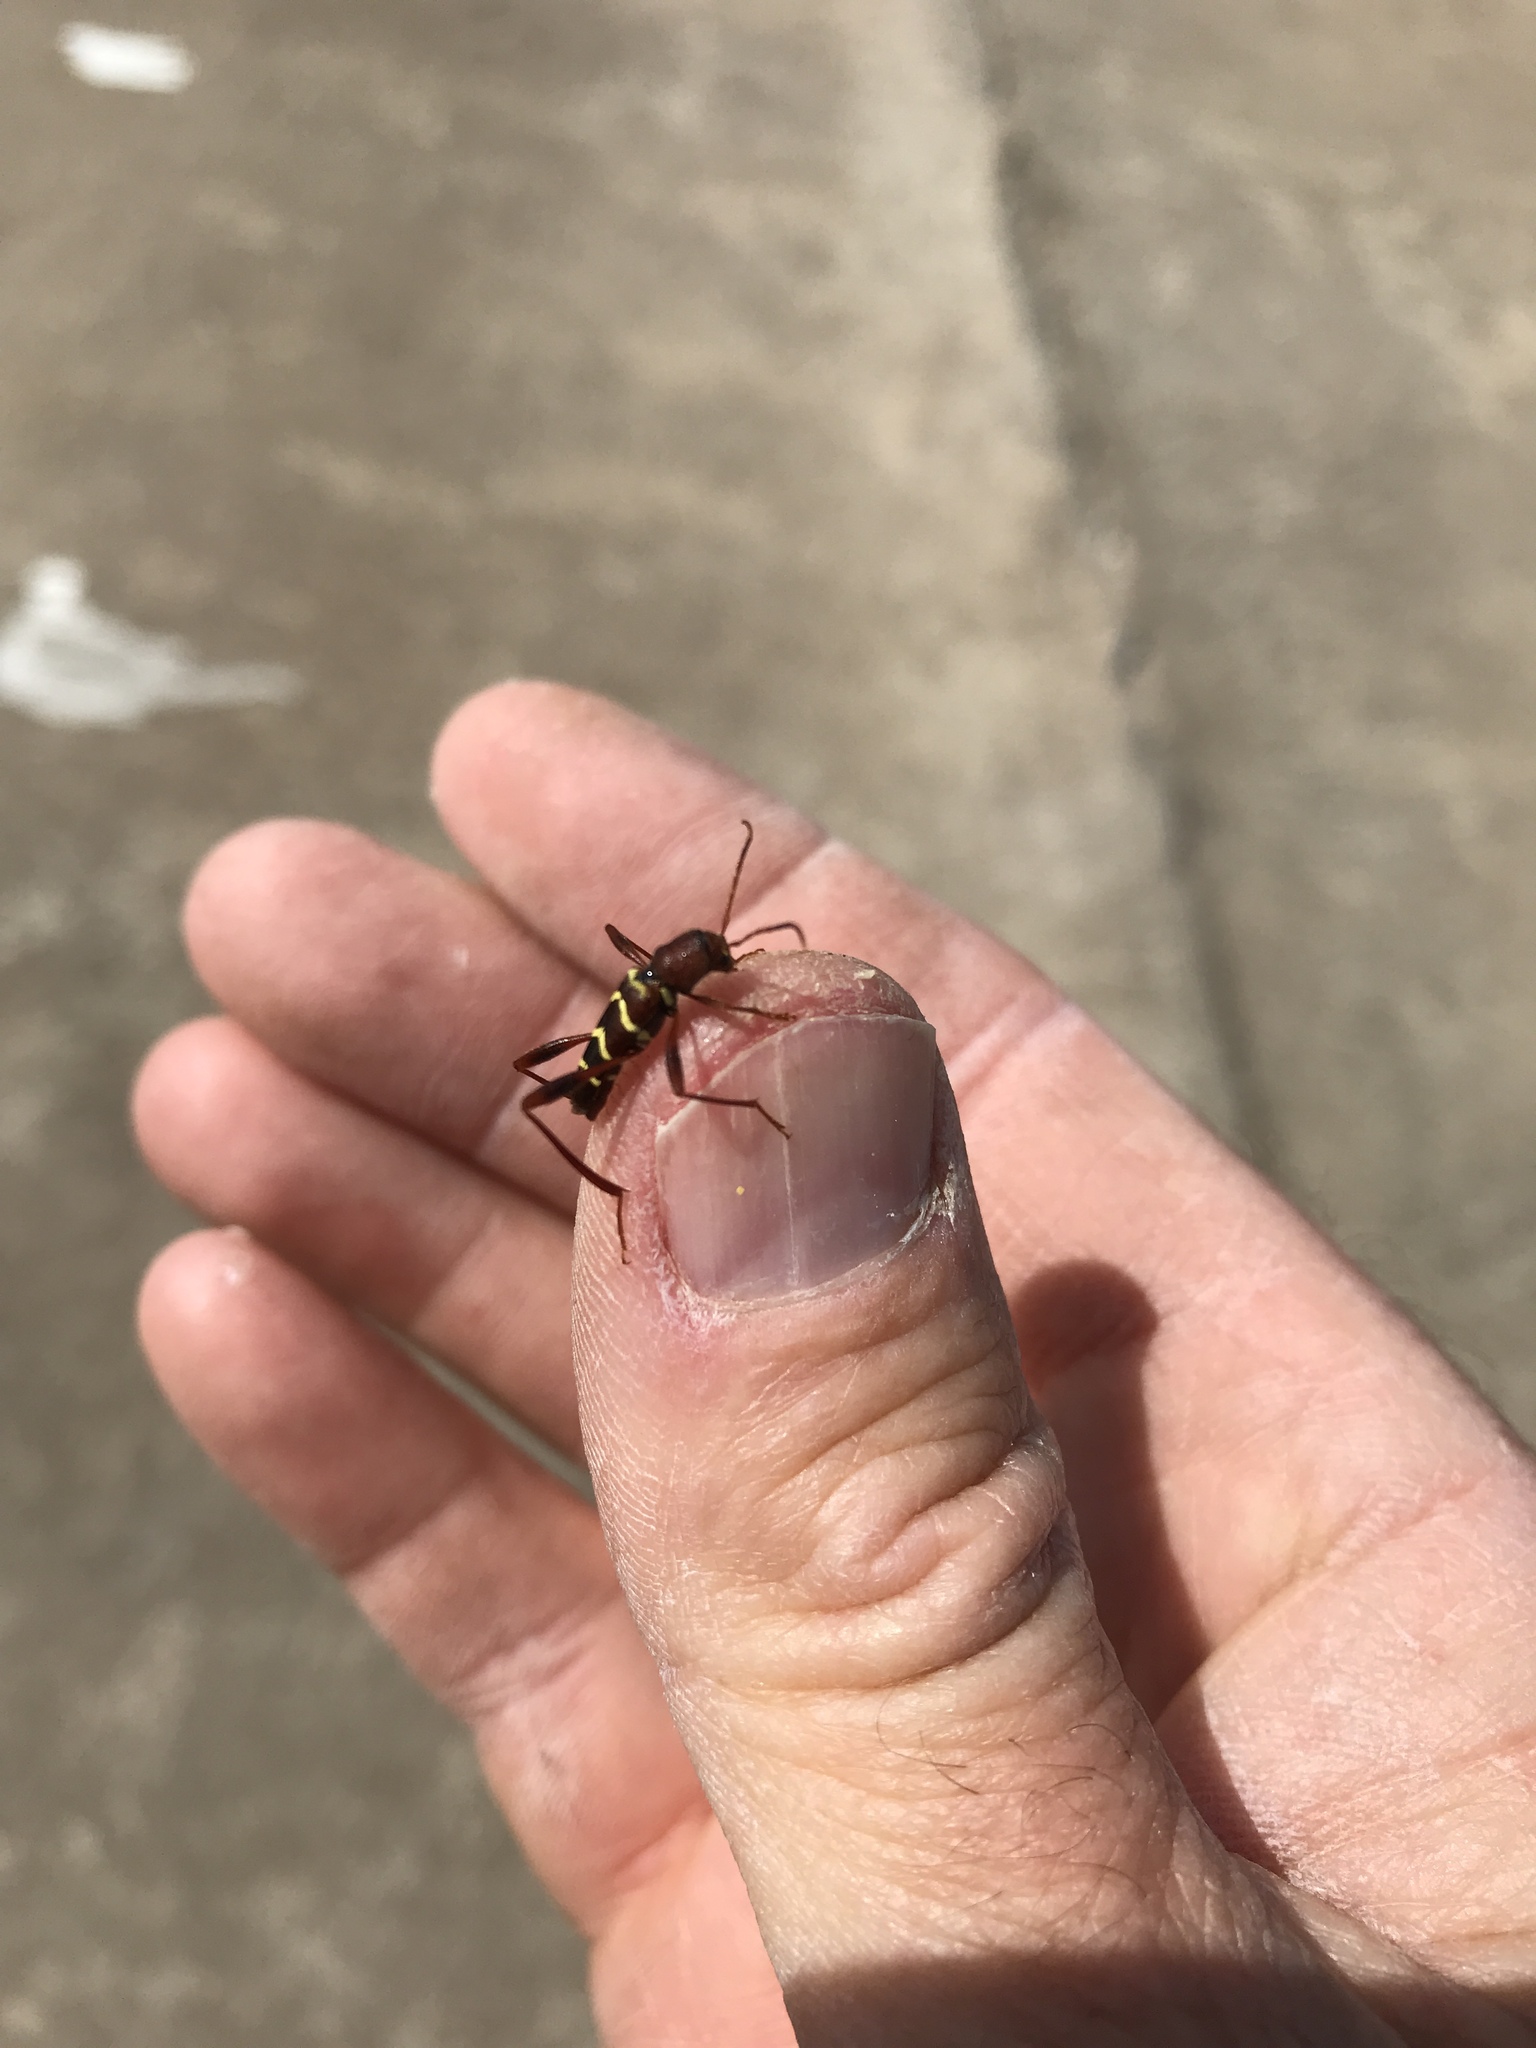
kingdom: Animalia
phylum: Arthropoda
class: Insecta
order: Coleoptera
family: Cerambycidae
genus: Neoclytus
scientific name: Neoclytus acuminatus
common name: Read-headed ash borer
